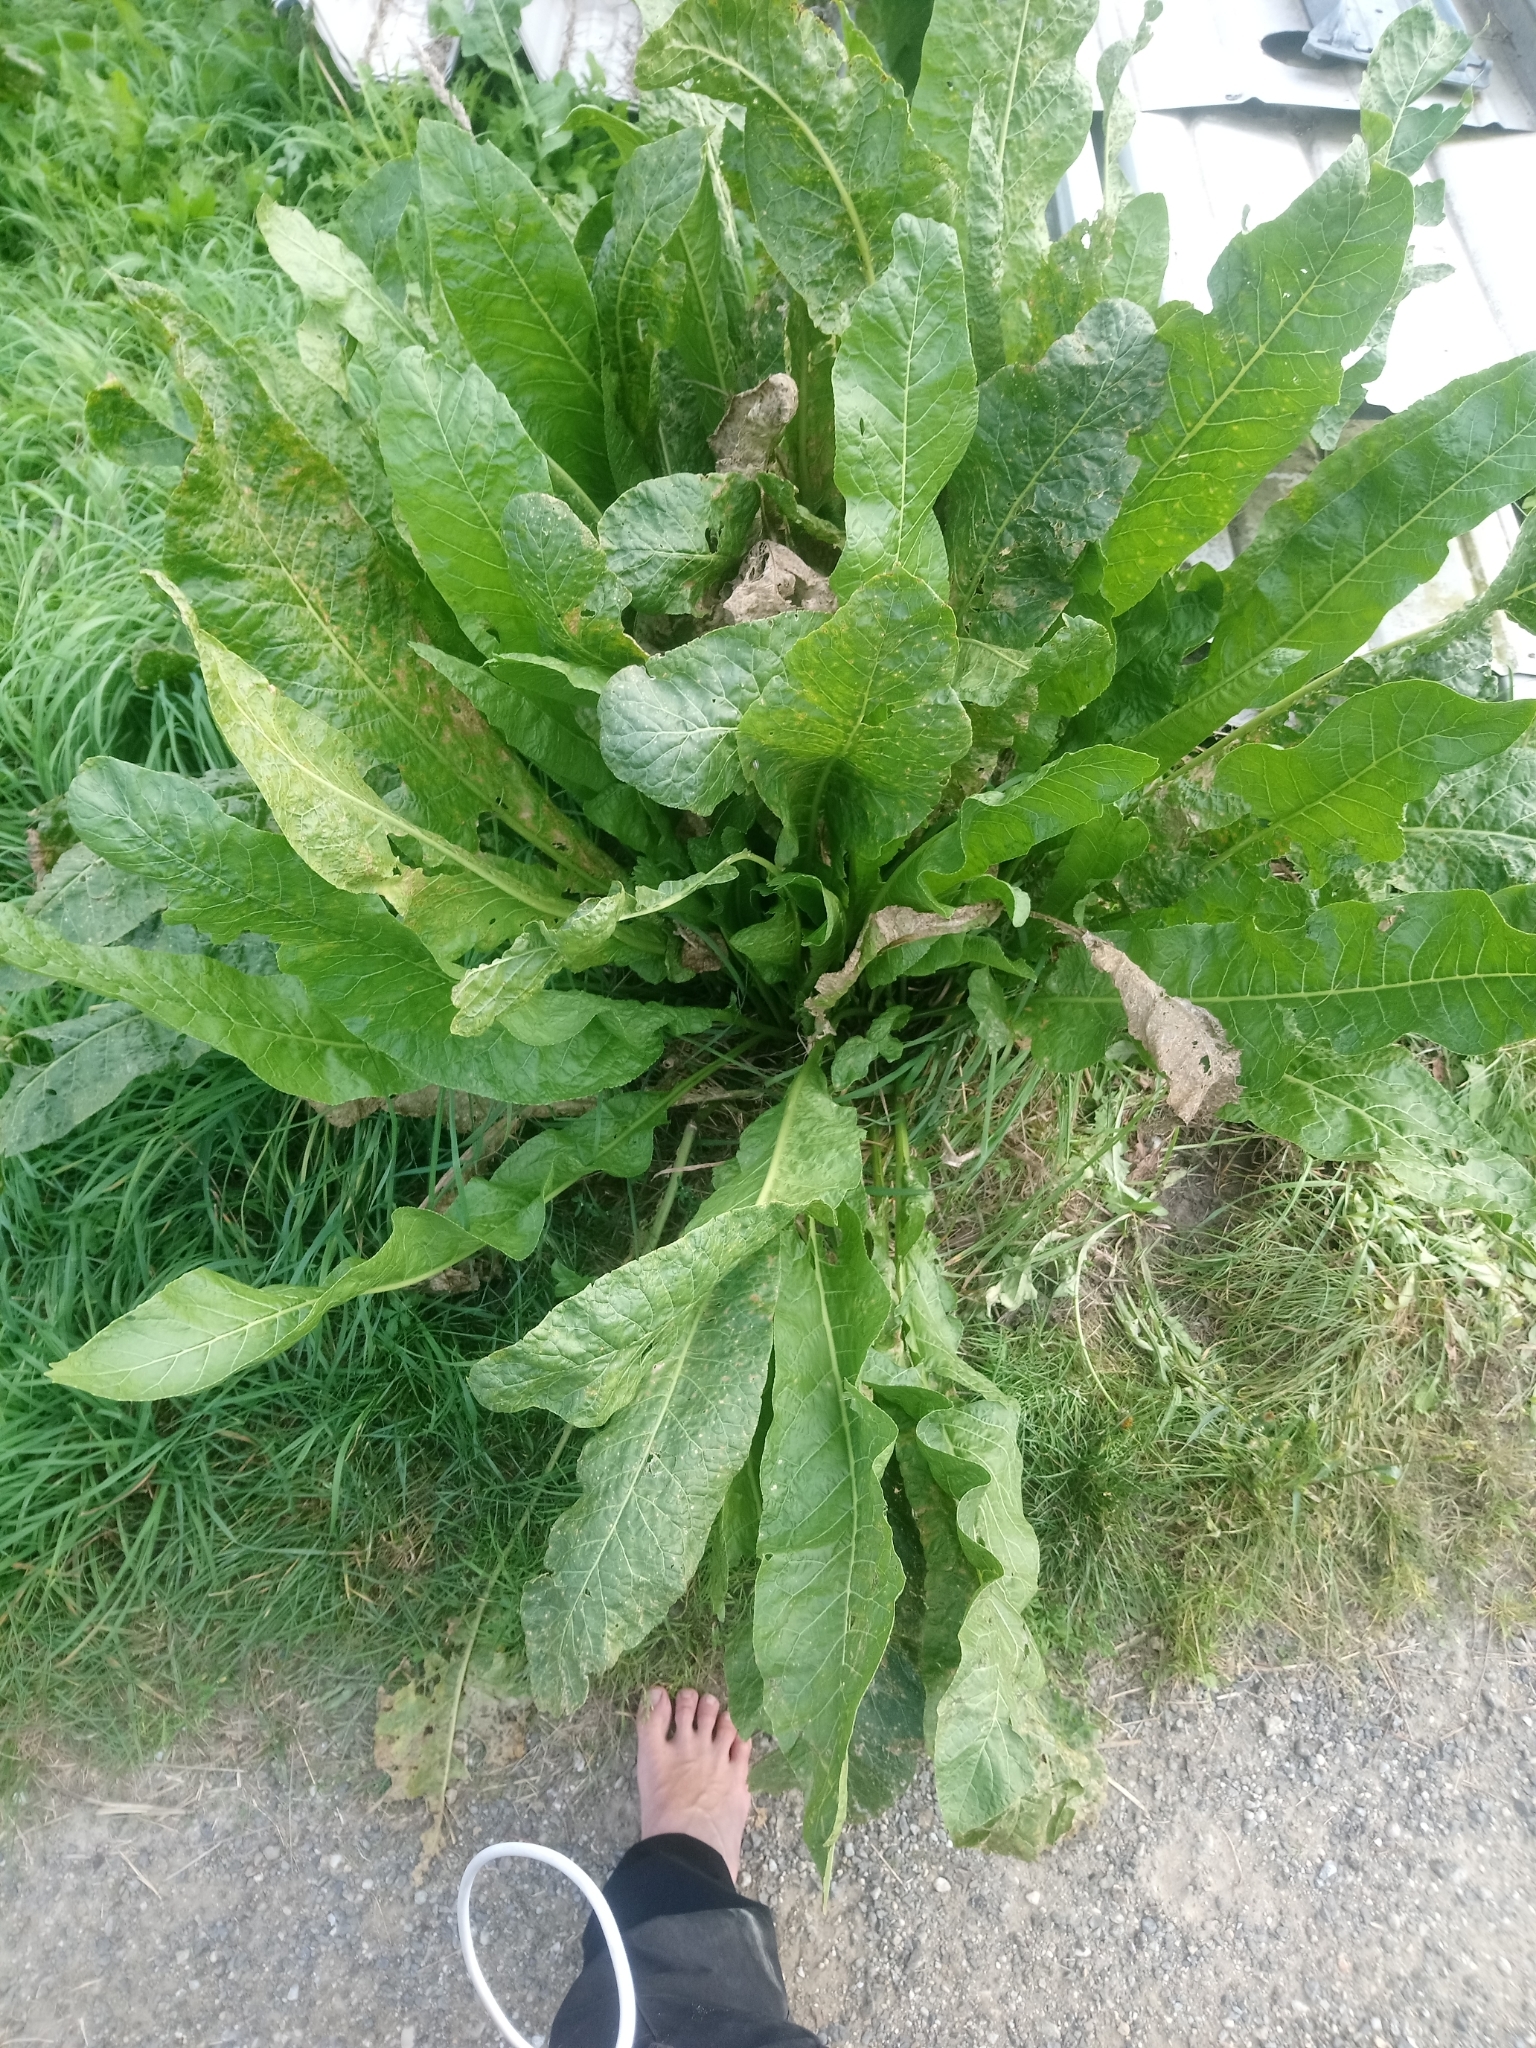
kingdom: Plantae
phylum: Tracheophyta
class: Magnoliopsida
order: Brassicales
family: Brassicaceae
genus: Armoracia
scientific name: Armoracia rusticana
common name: Horseradish
